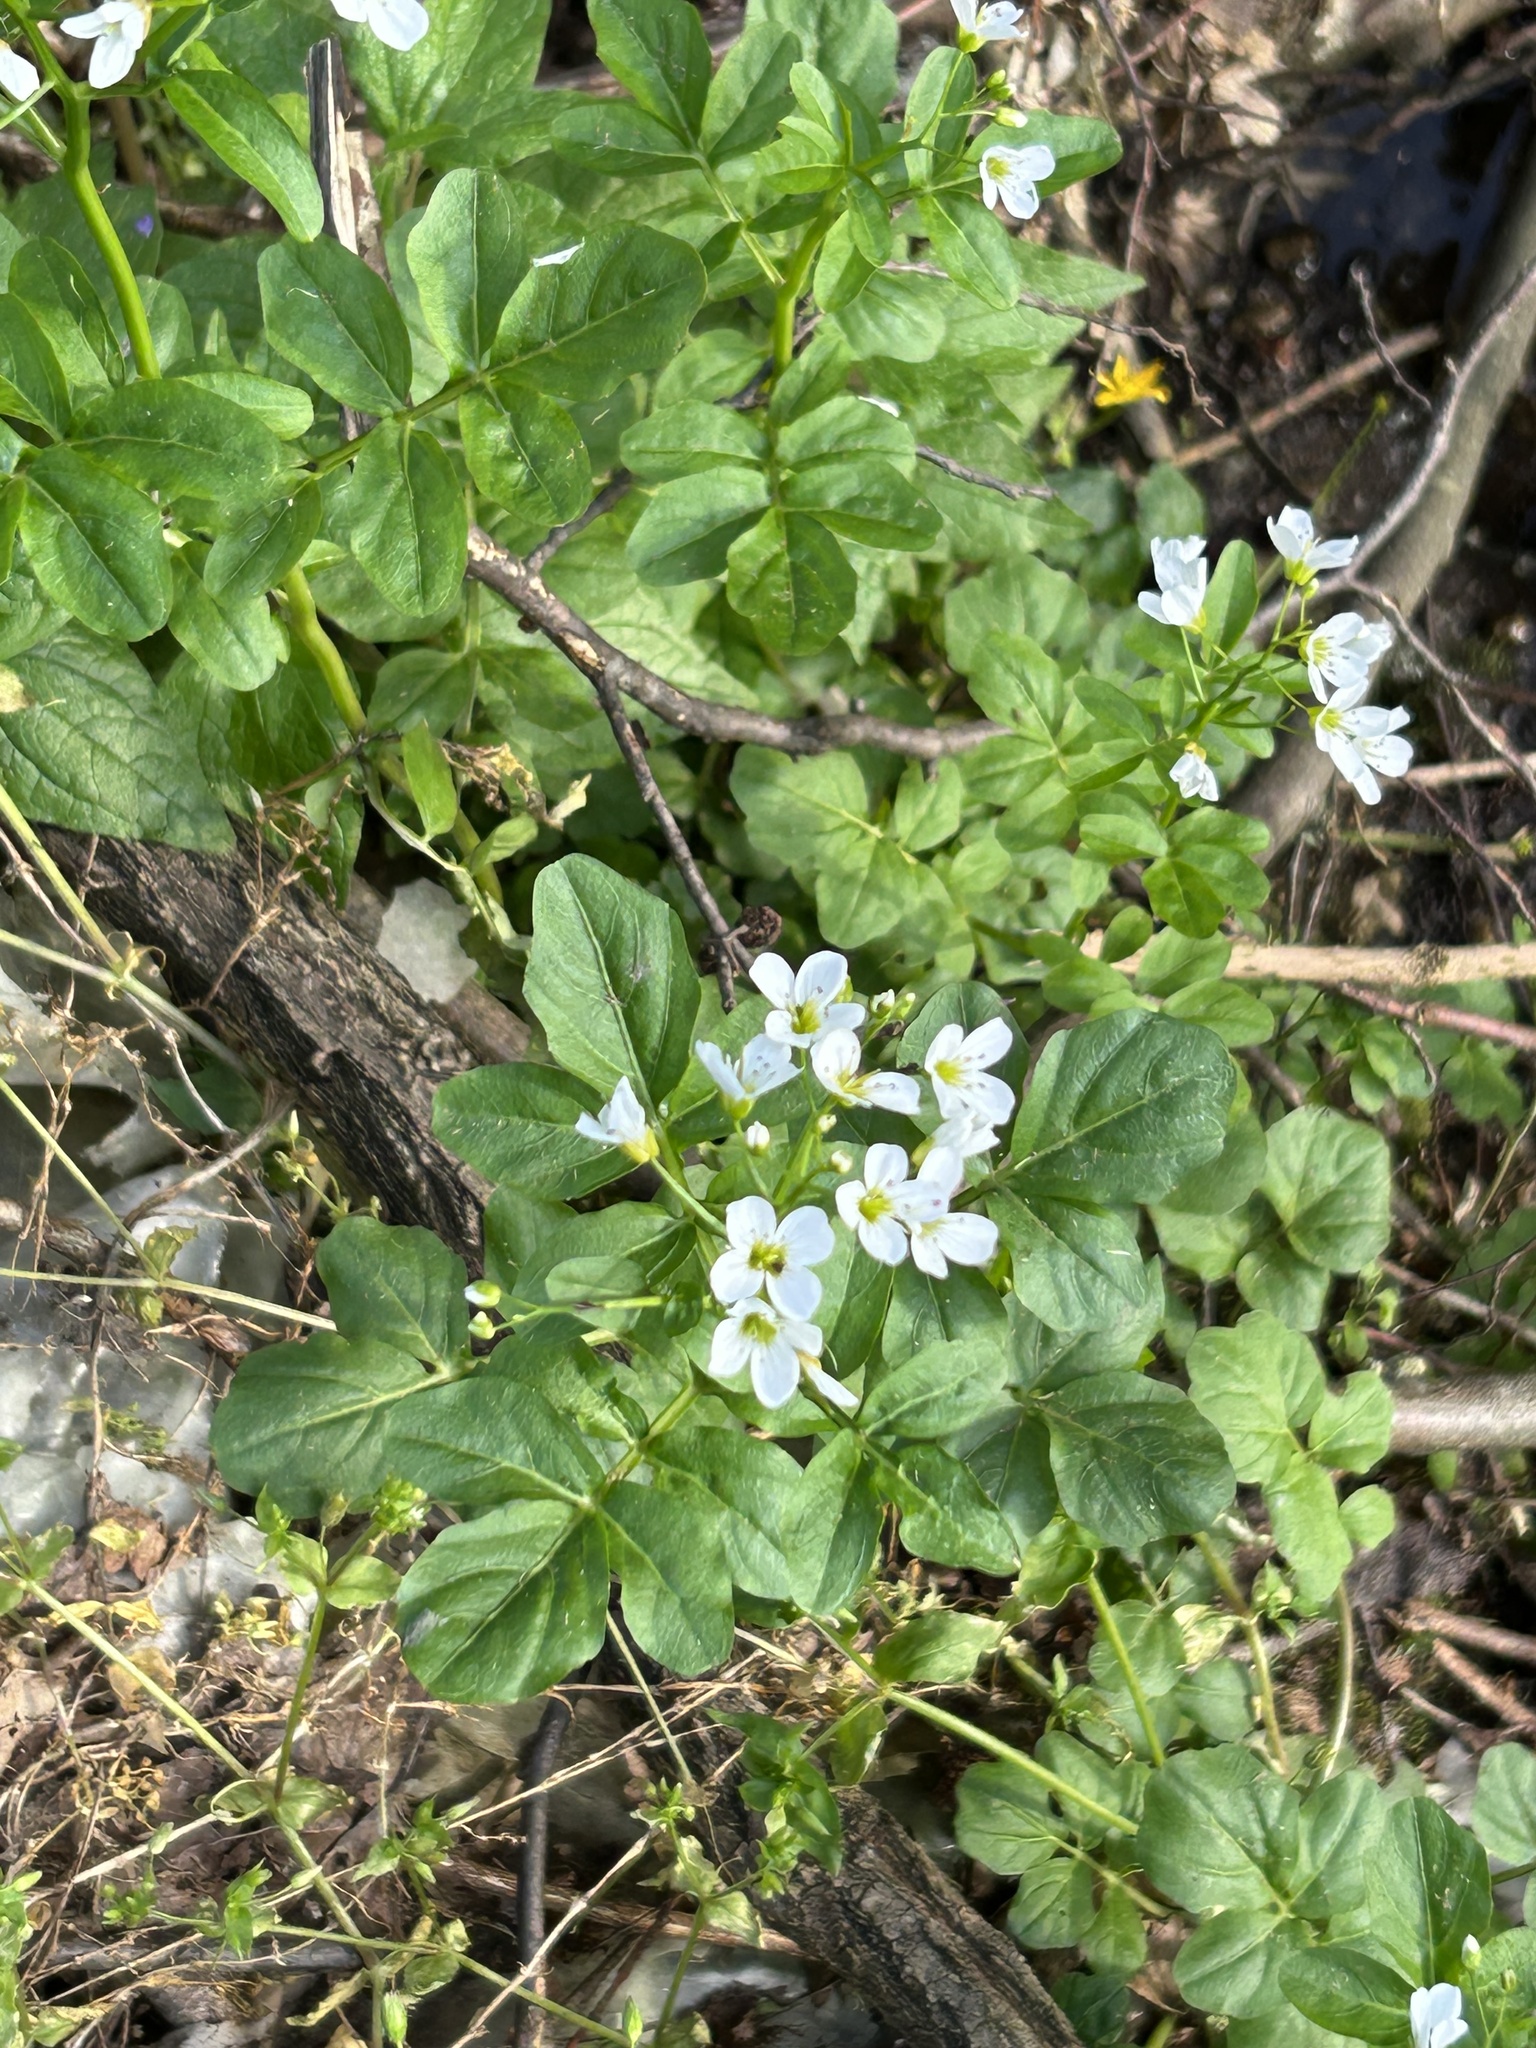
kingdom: Plantae
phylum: Tracheophyta
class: Magnoliopsida
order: Brassicales
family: Brassicaceae
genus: Cardamine
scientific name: Cardamine amara
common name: Large bitter-cress
